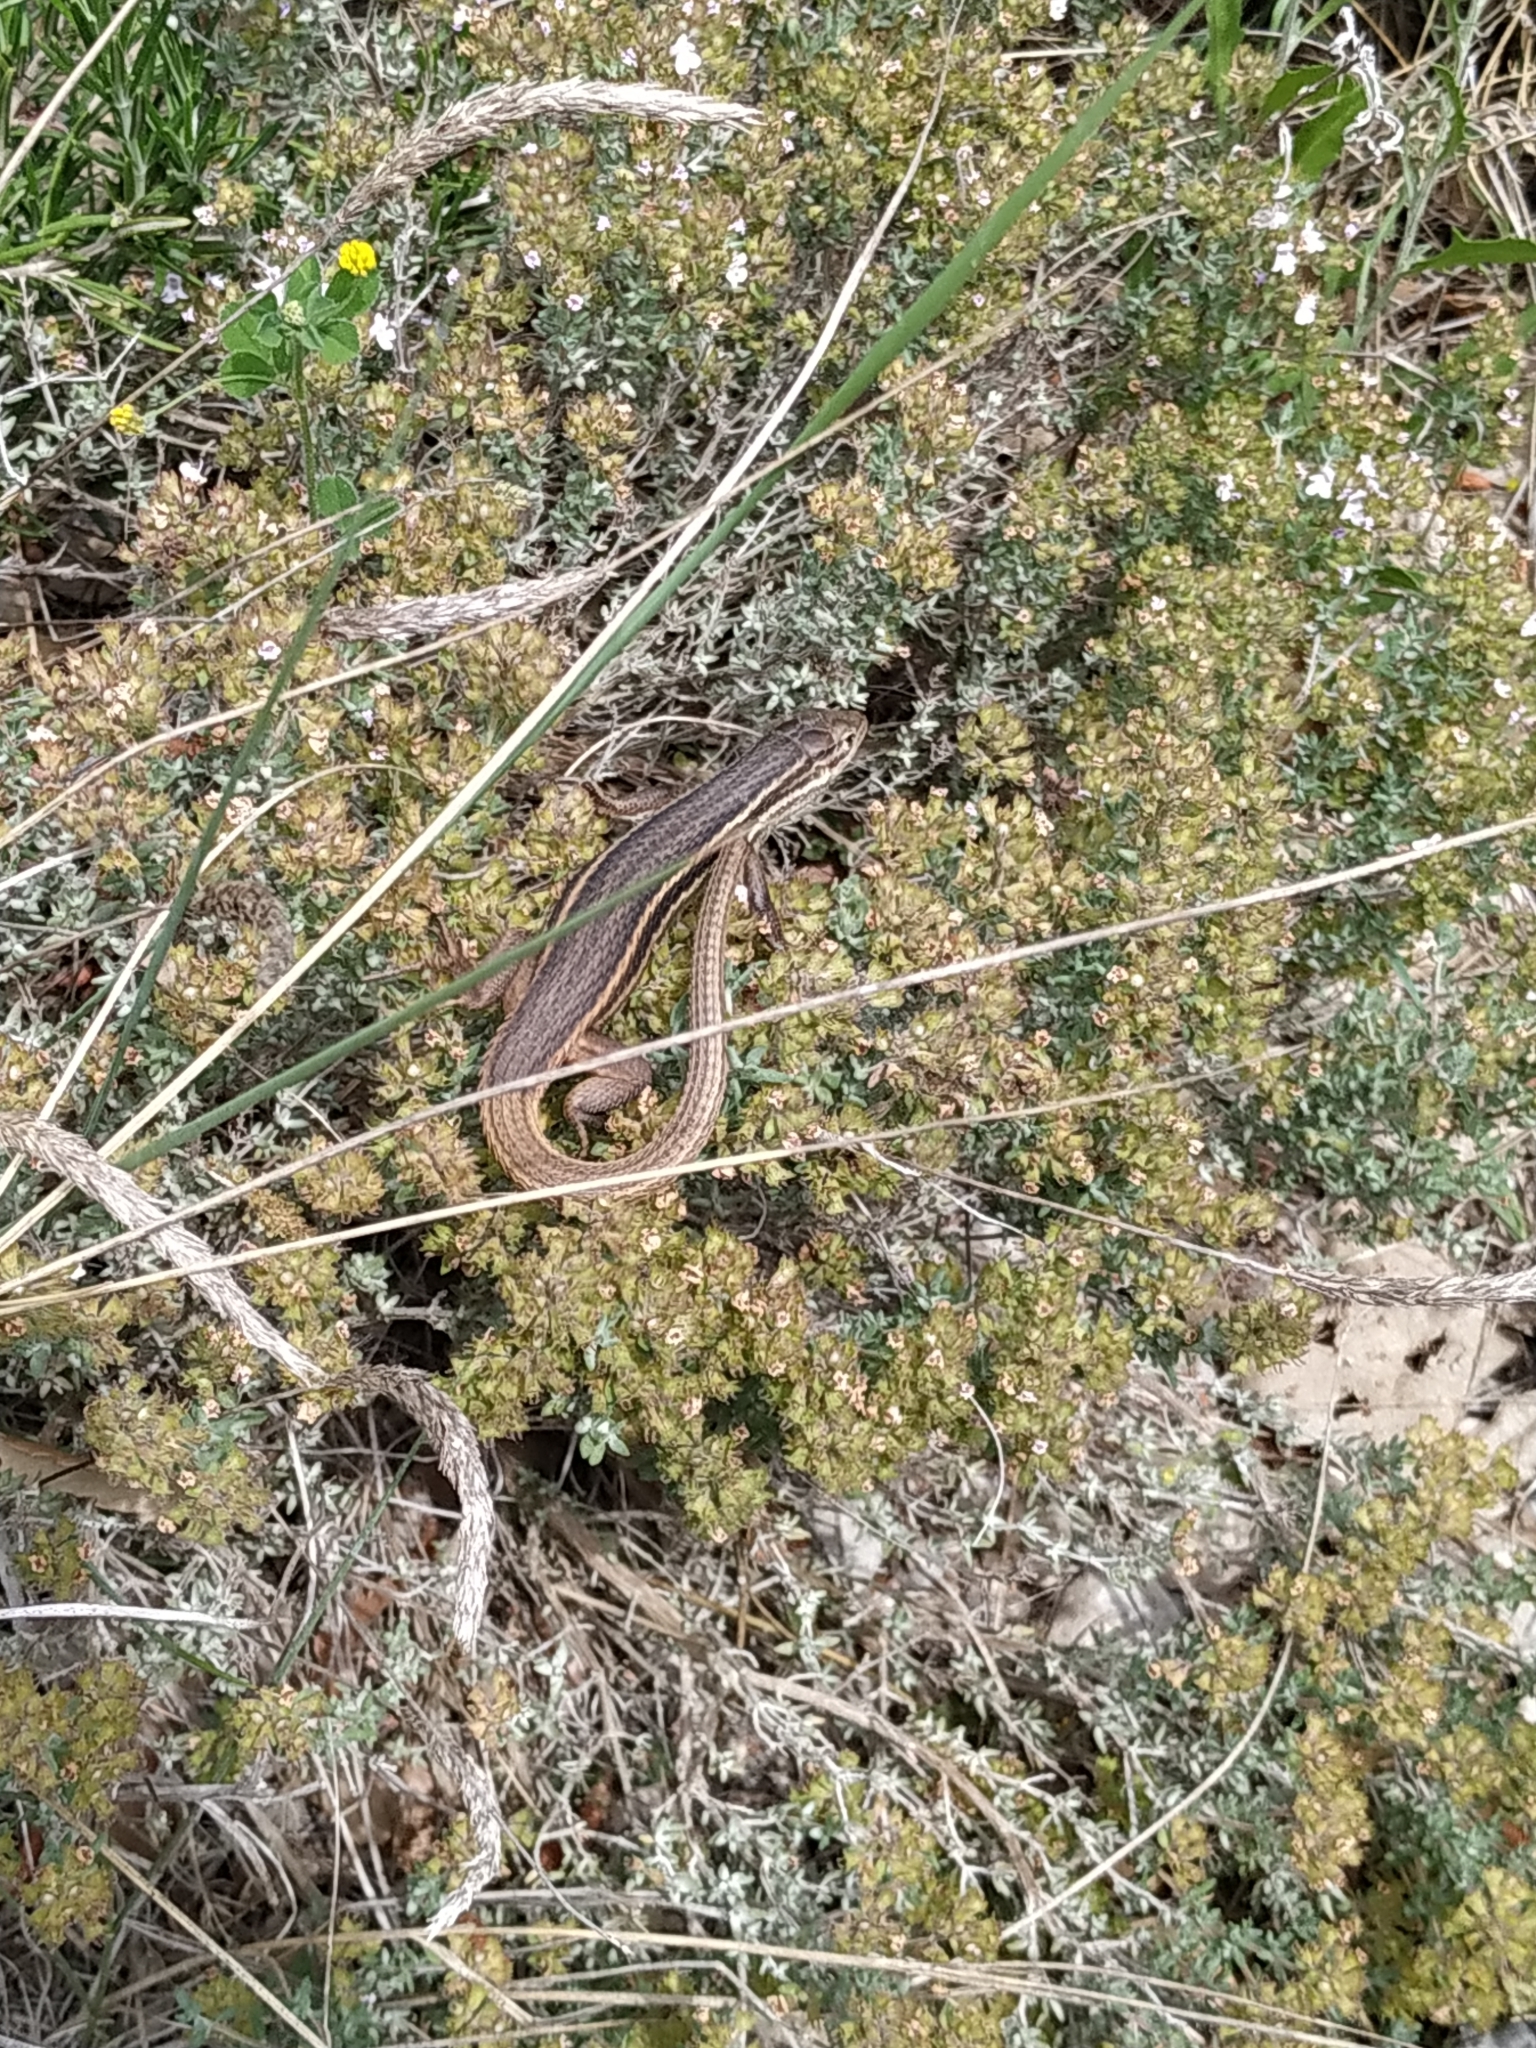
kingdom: Animalia
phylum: Chordata
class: Squamata
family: Lacertidae
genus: Psammodromus
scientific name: Psammodromus algirus
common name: Algerian psammodromus
